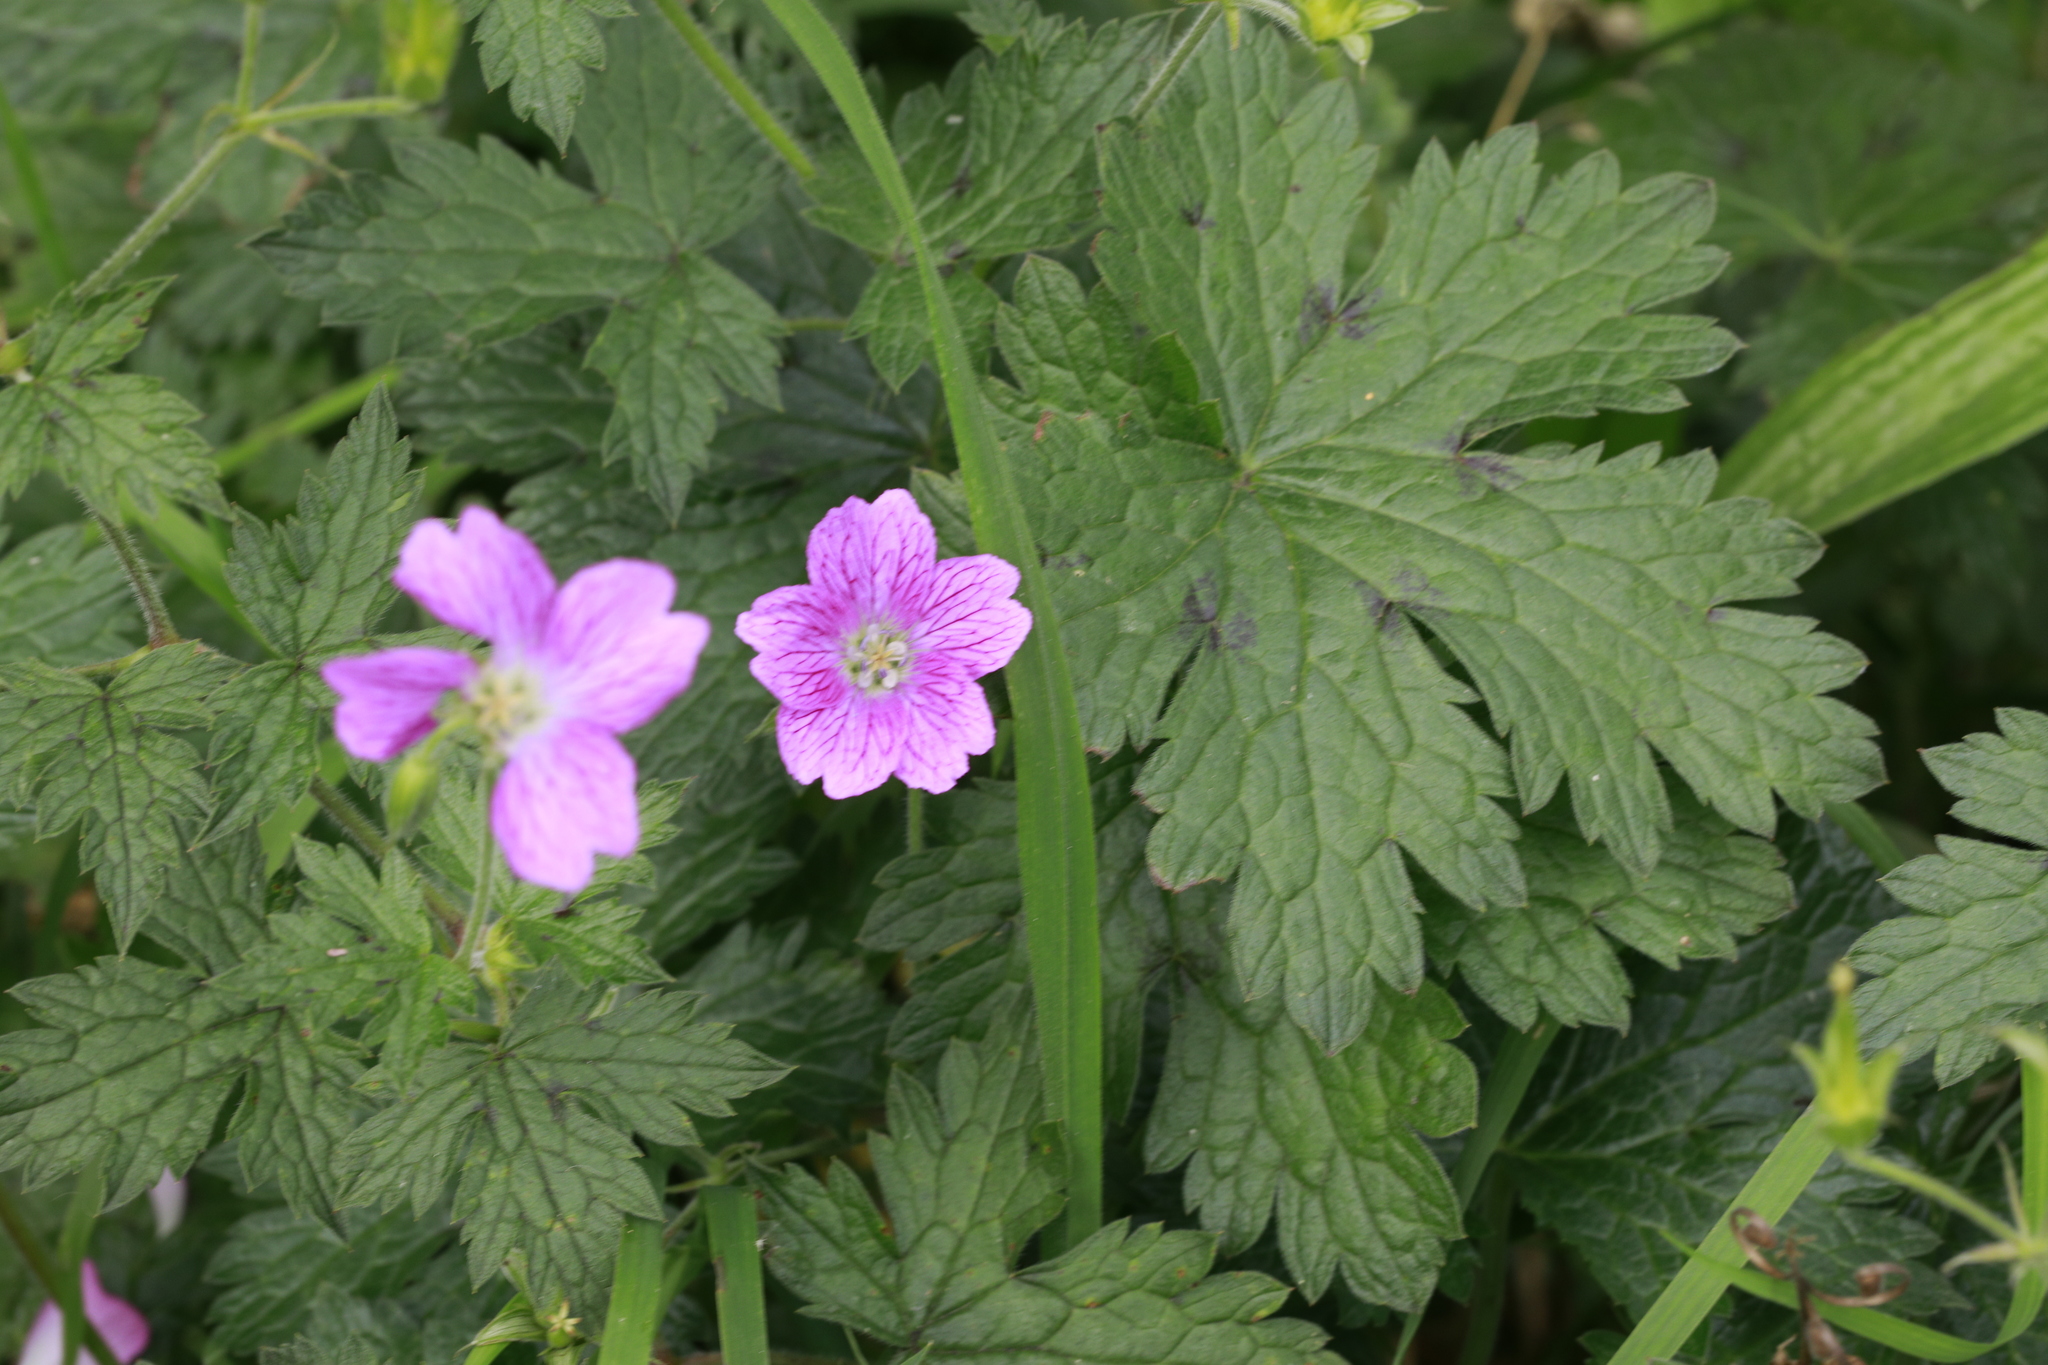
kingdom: Plantae
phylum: Tracheophyta
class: Magnoliopsida
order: Geraniales
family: Geraniaceae
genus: Geranium
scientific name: Geranium oxonianum
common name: Druce's crane's-bill
